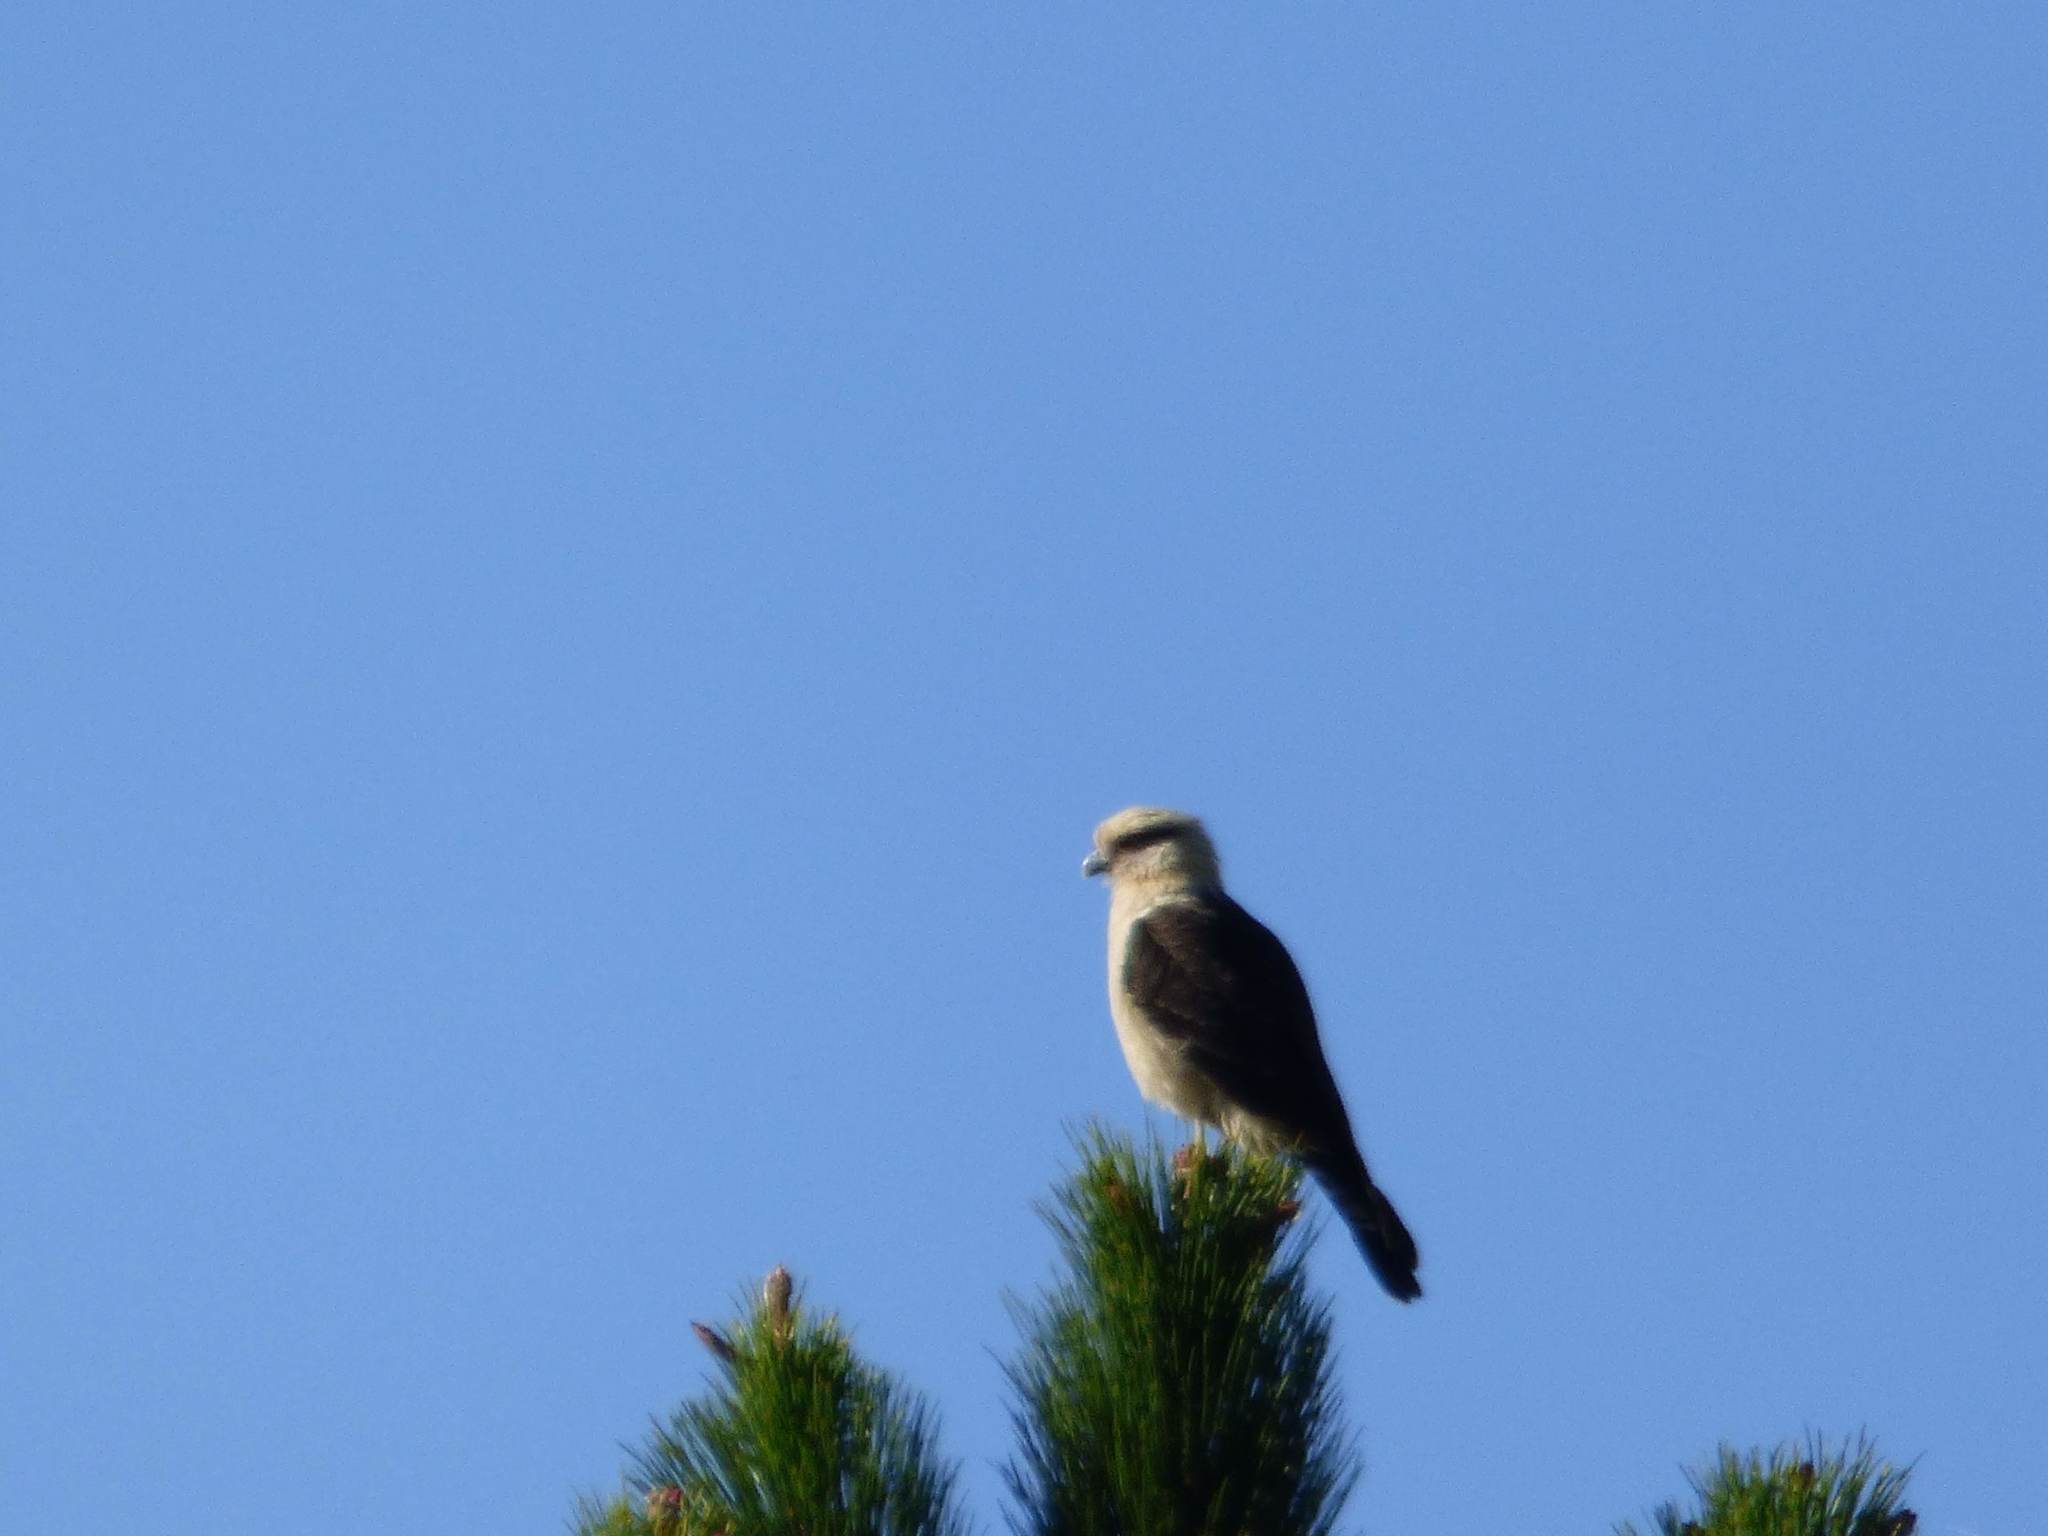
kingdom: Animalia
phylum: Chordata
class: Aves
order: Falconiformes
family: Falconidae
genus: Daptrius
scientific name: Daptrius
